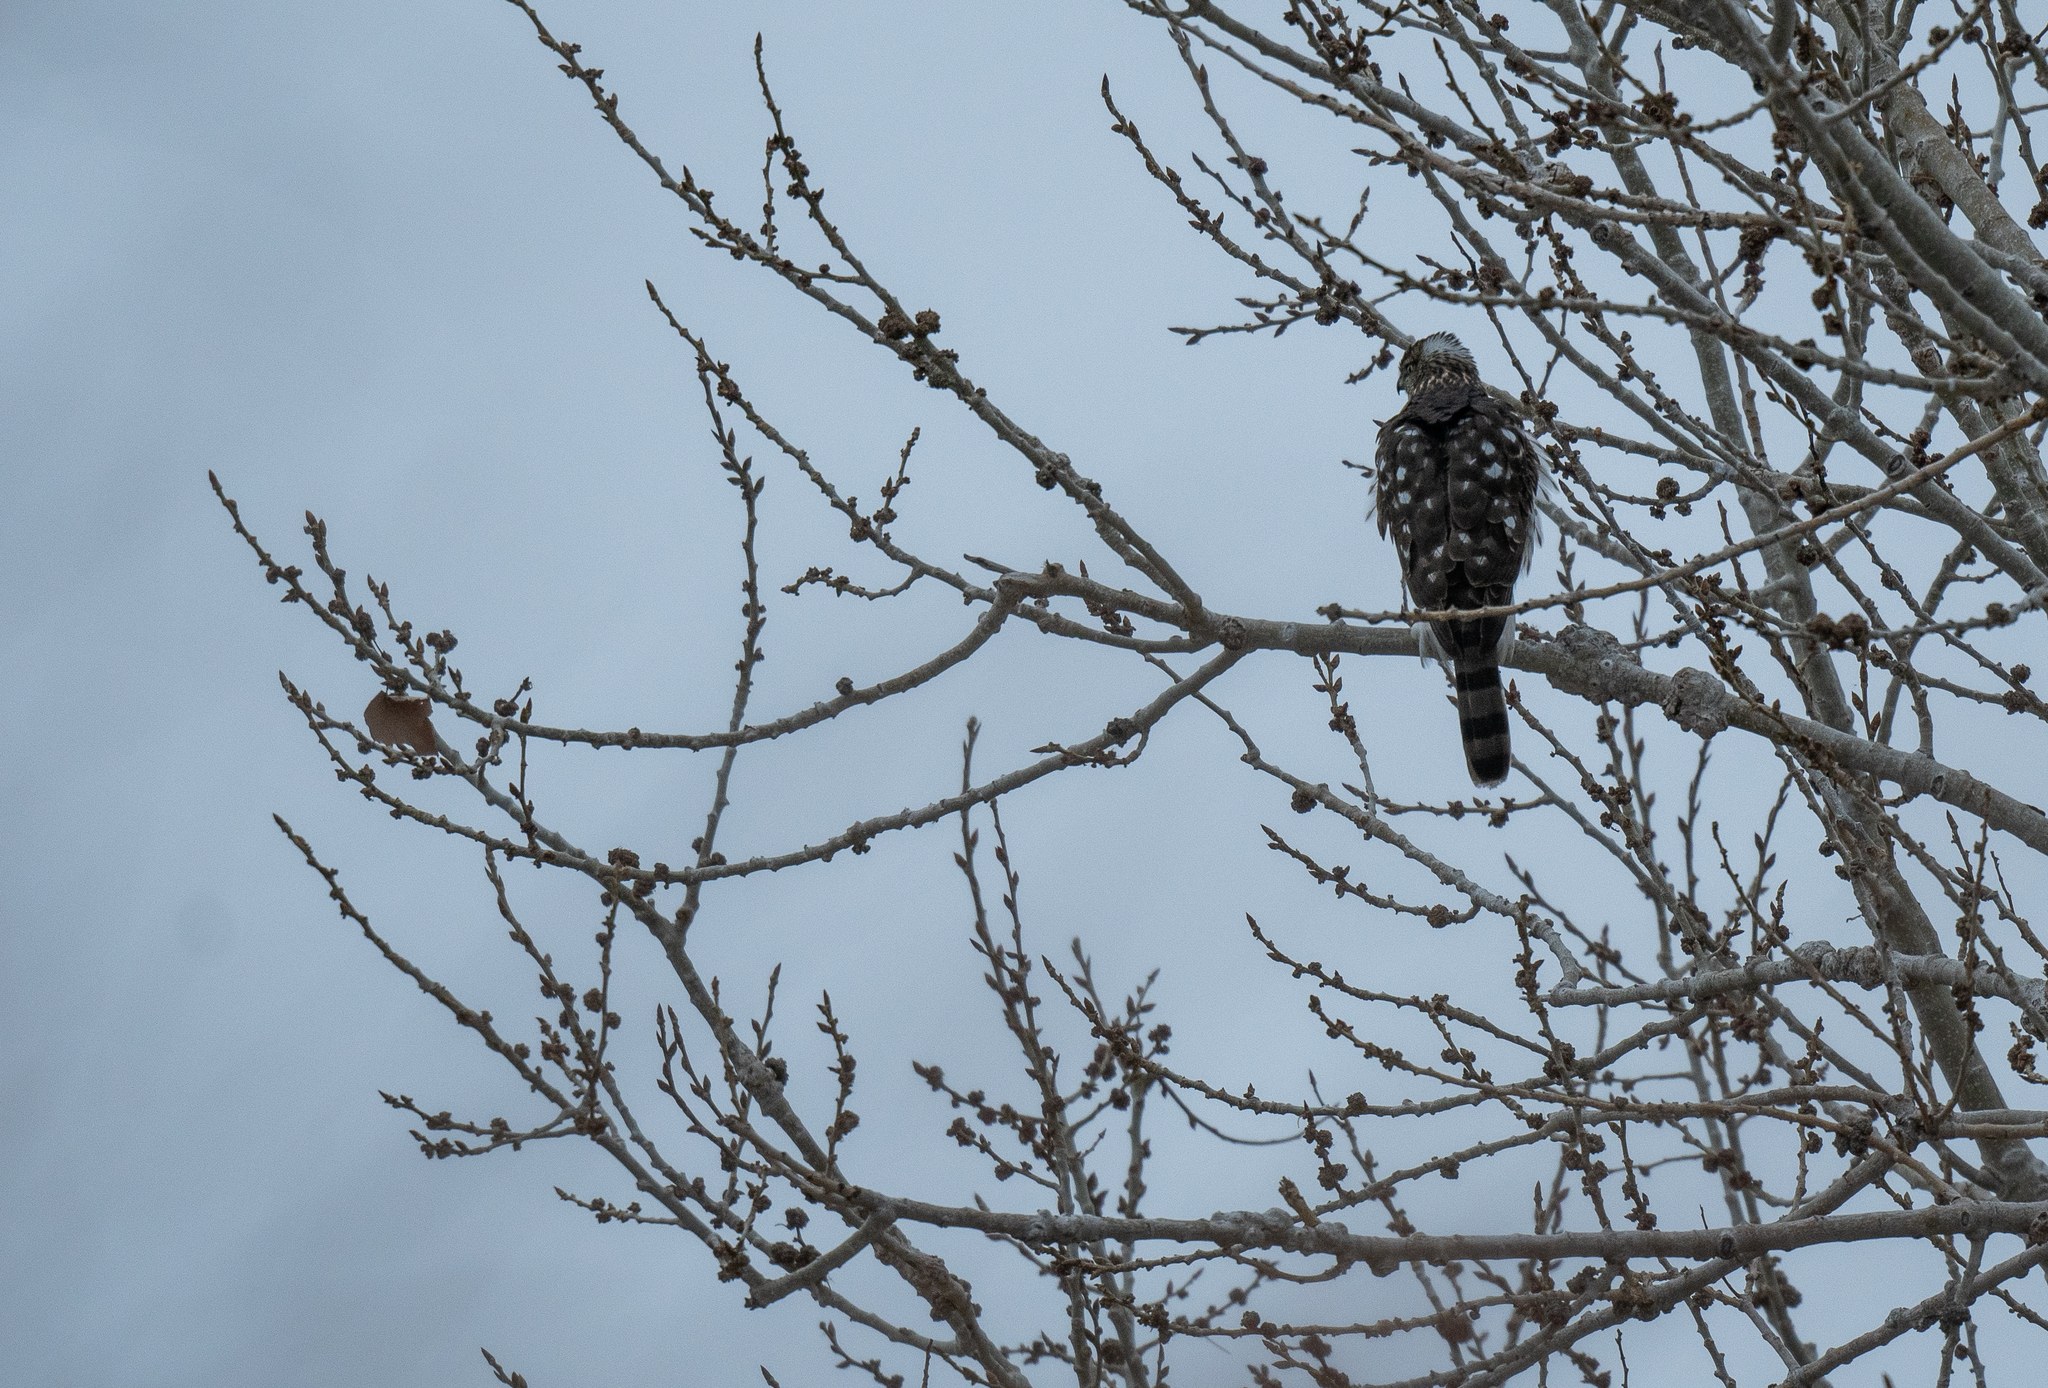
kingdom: Animalia
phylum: Chordata
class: Aves
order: Accipitriformes
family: Accipitridae
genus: Accipiter
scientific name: Accipiter cooperii
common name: Cooper's hawk
